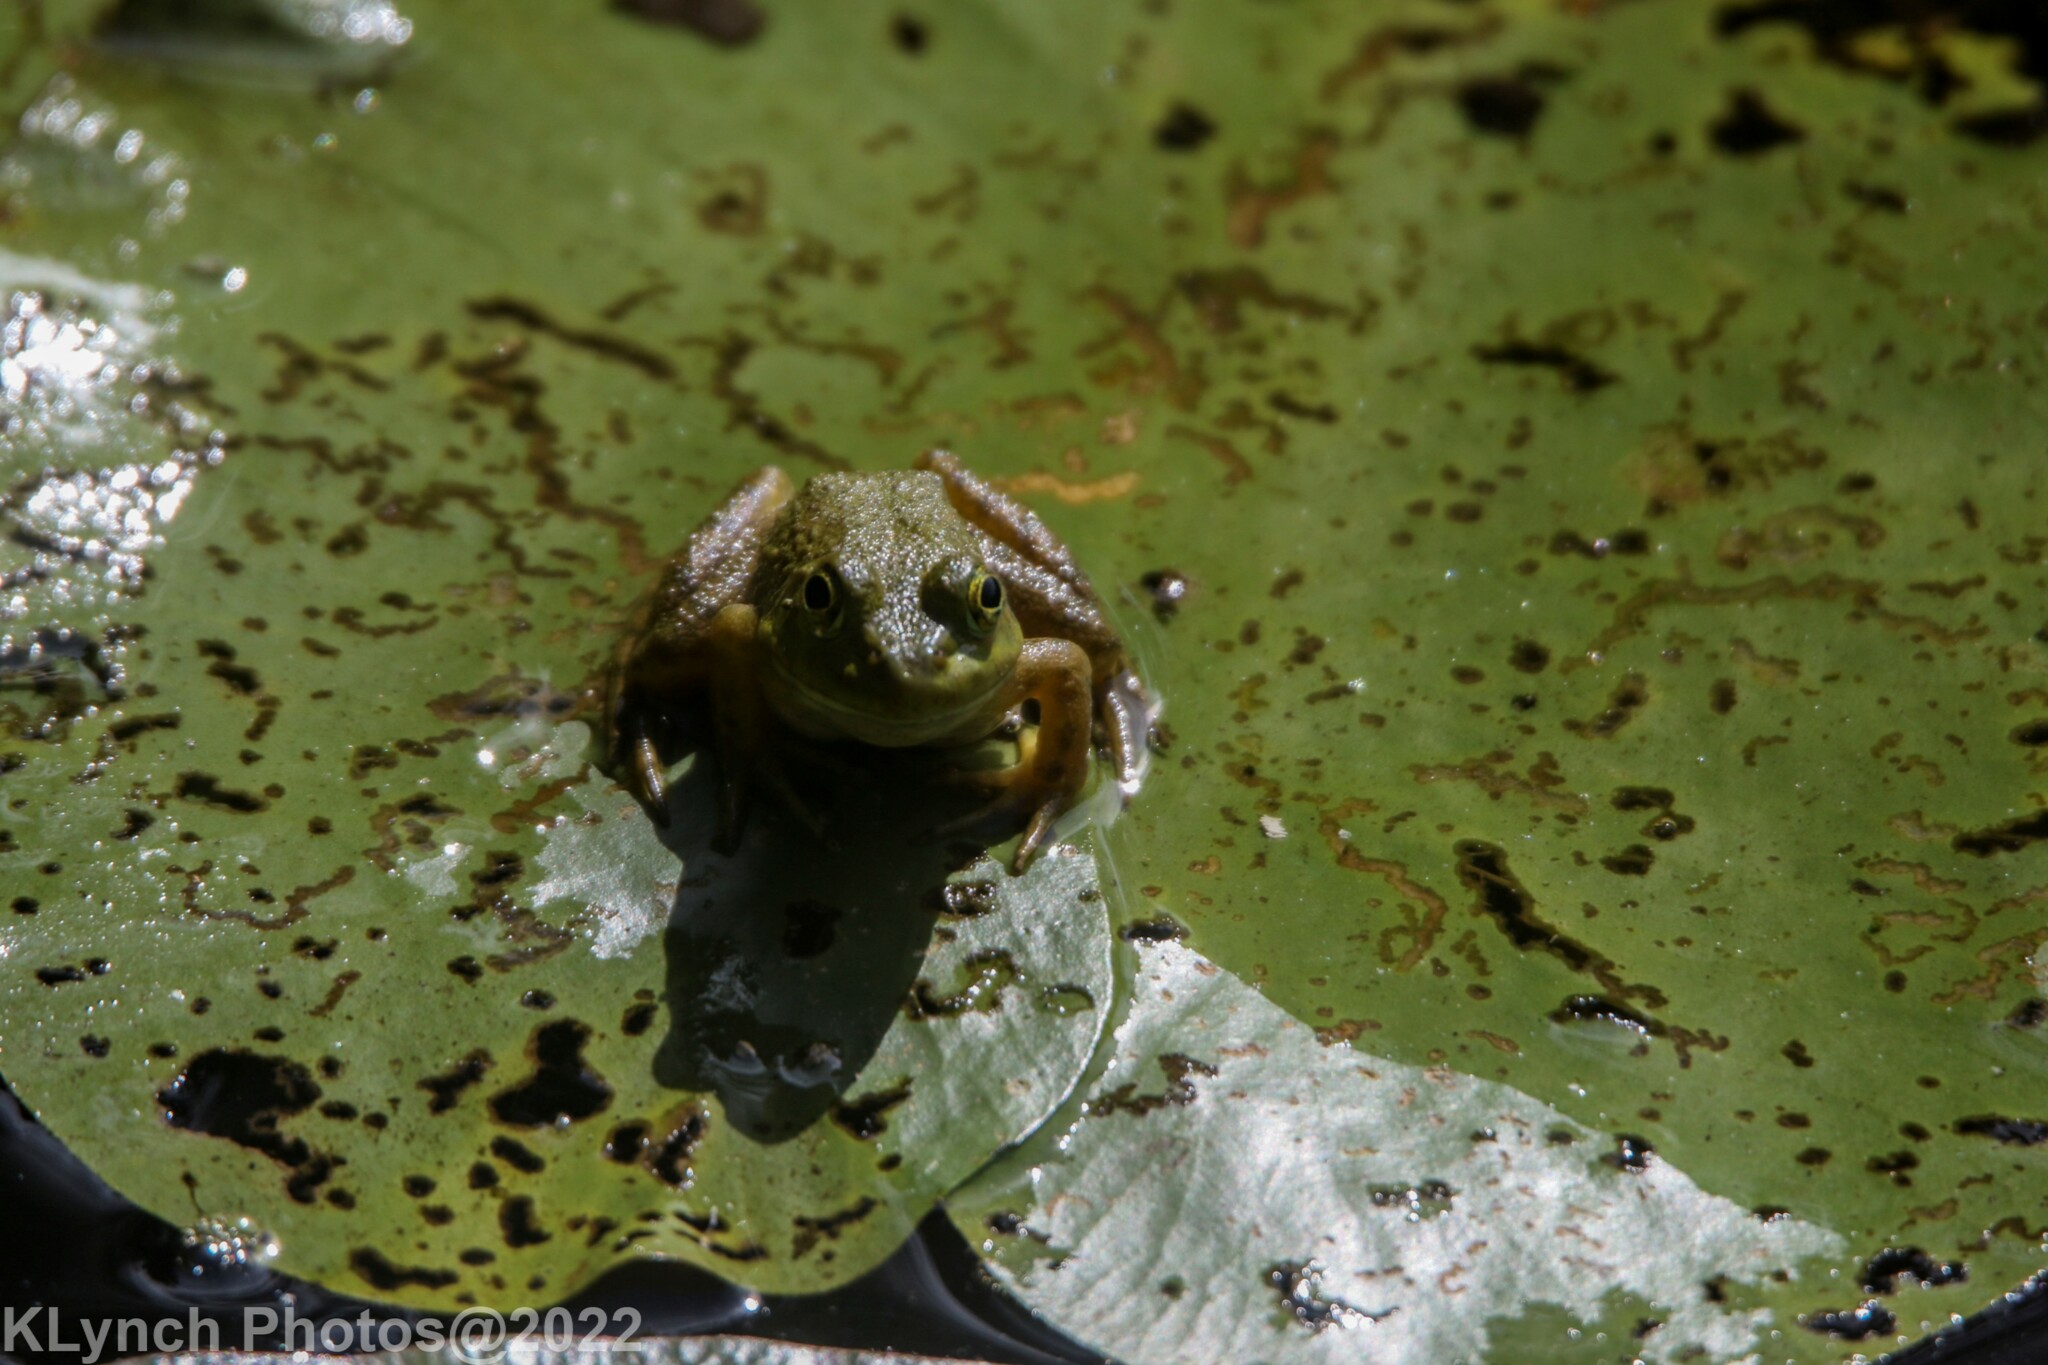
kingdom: Animalia
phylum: Chordata
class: Amphibia
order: Anura
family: Ranidae
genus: Lithobates
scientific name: Lithobates catesbeianus
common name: American bullfrog
